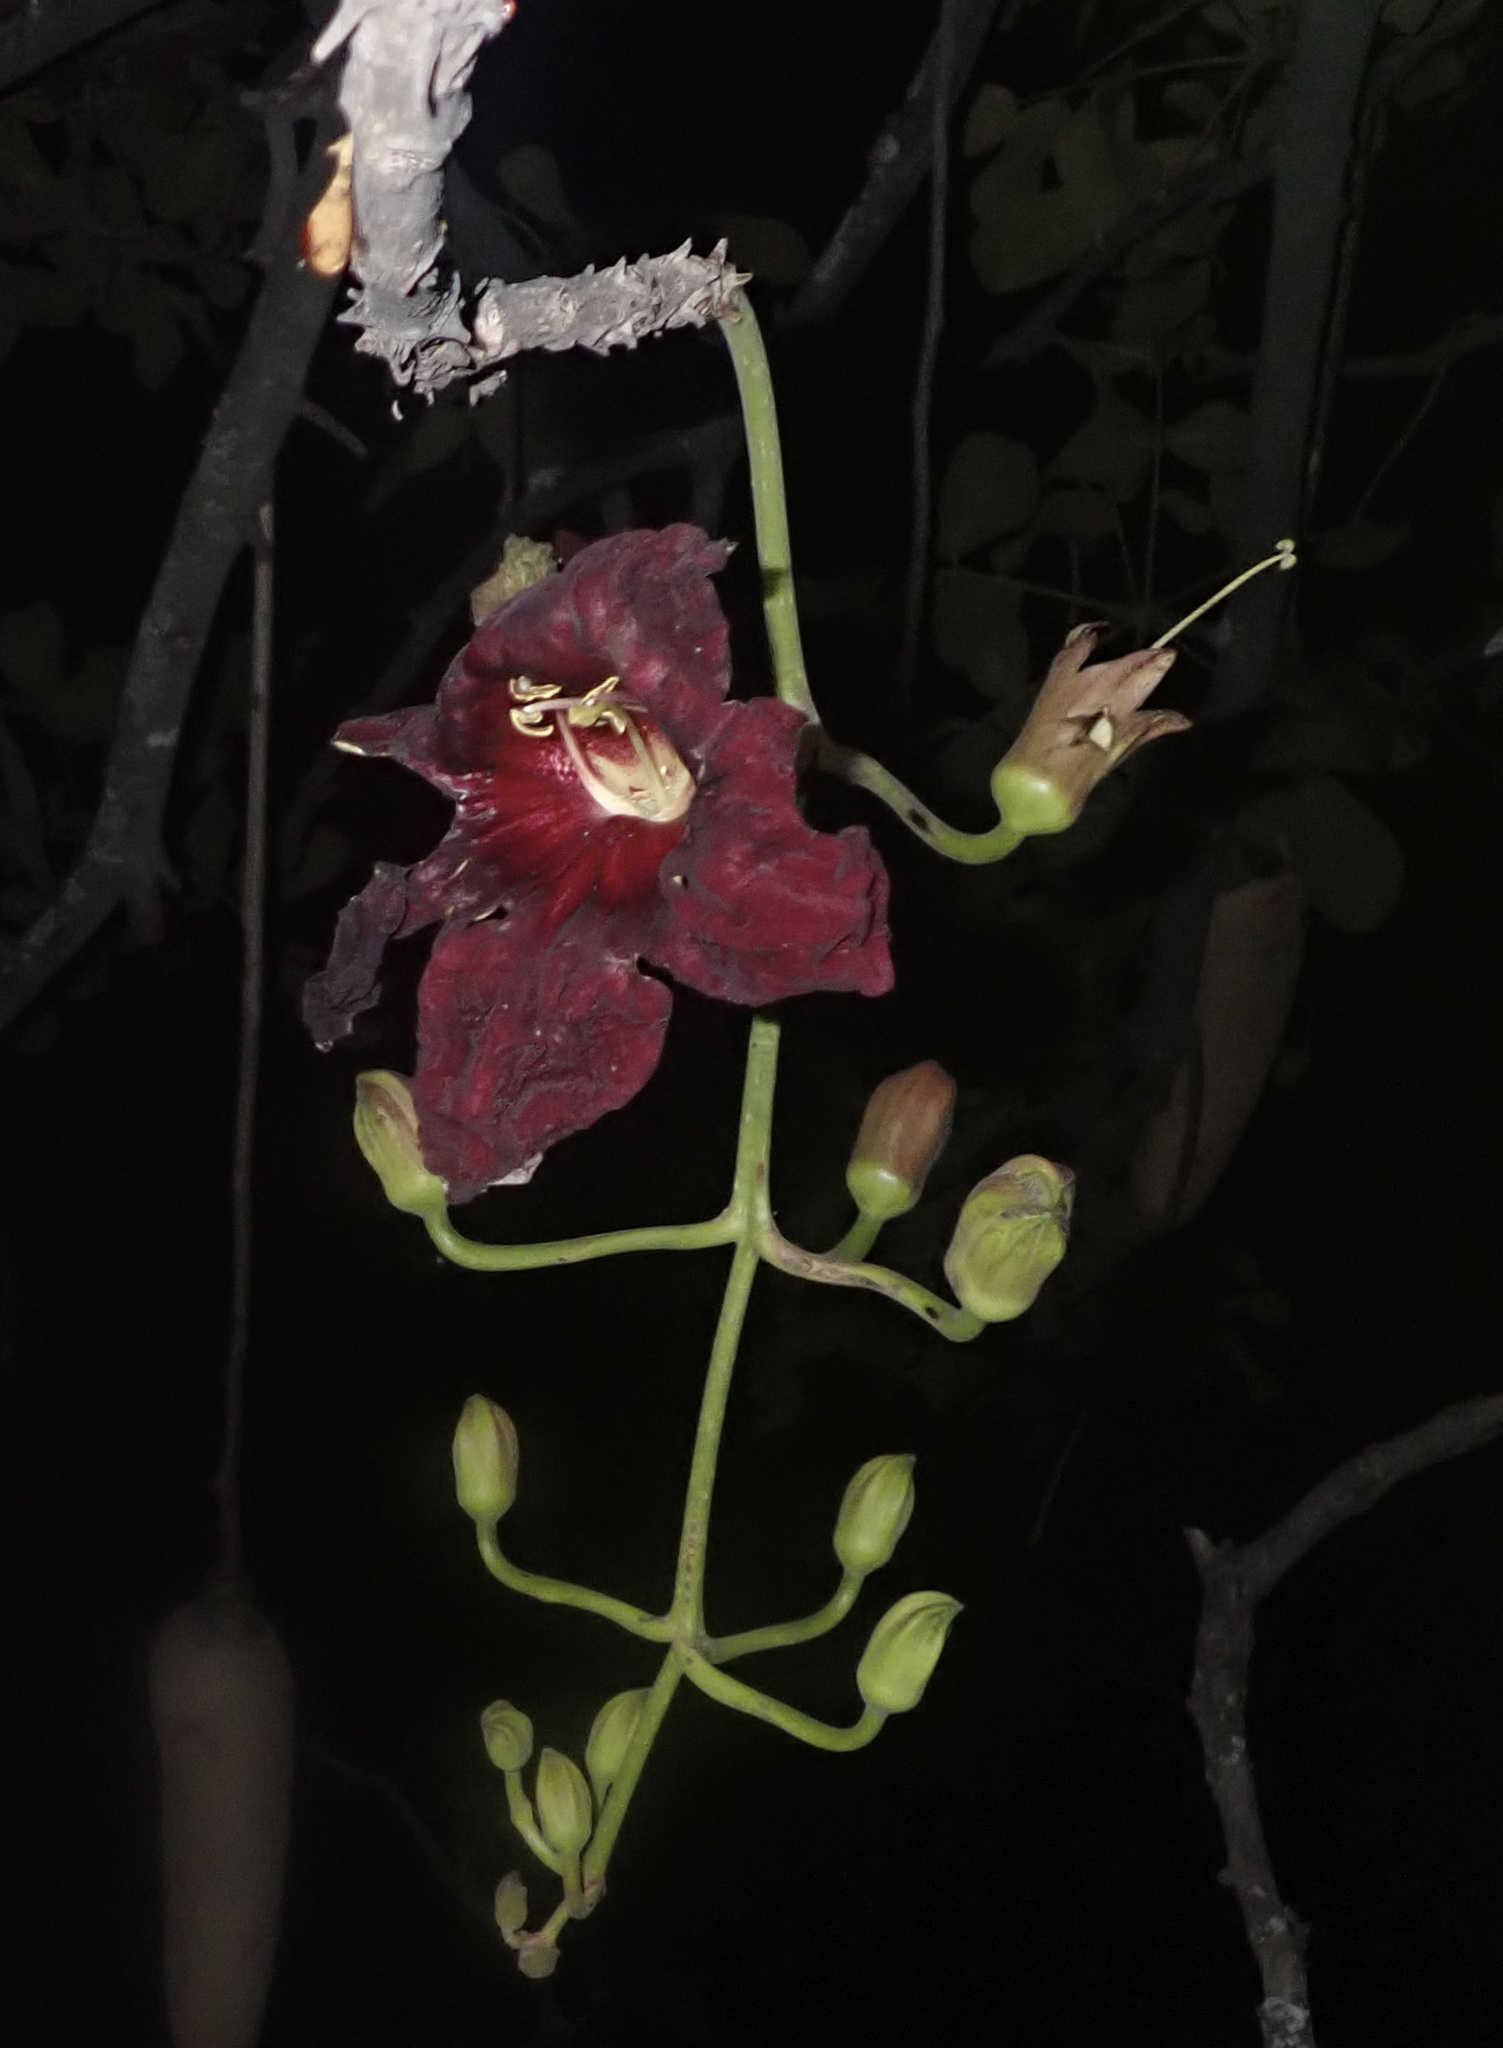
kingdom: Plantae
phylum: Tracheophyta
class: Magnoliopsida
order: Lamiales
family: Bignoniaceae
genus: Kigelia
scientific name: Kigelia africana
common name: Sausage tree
